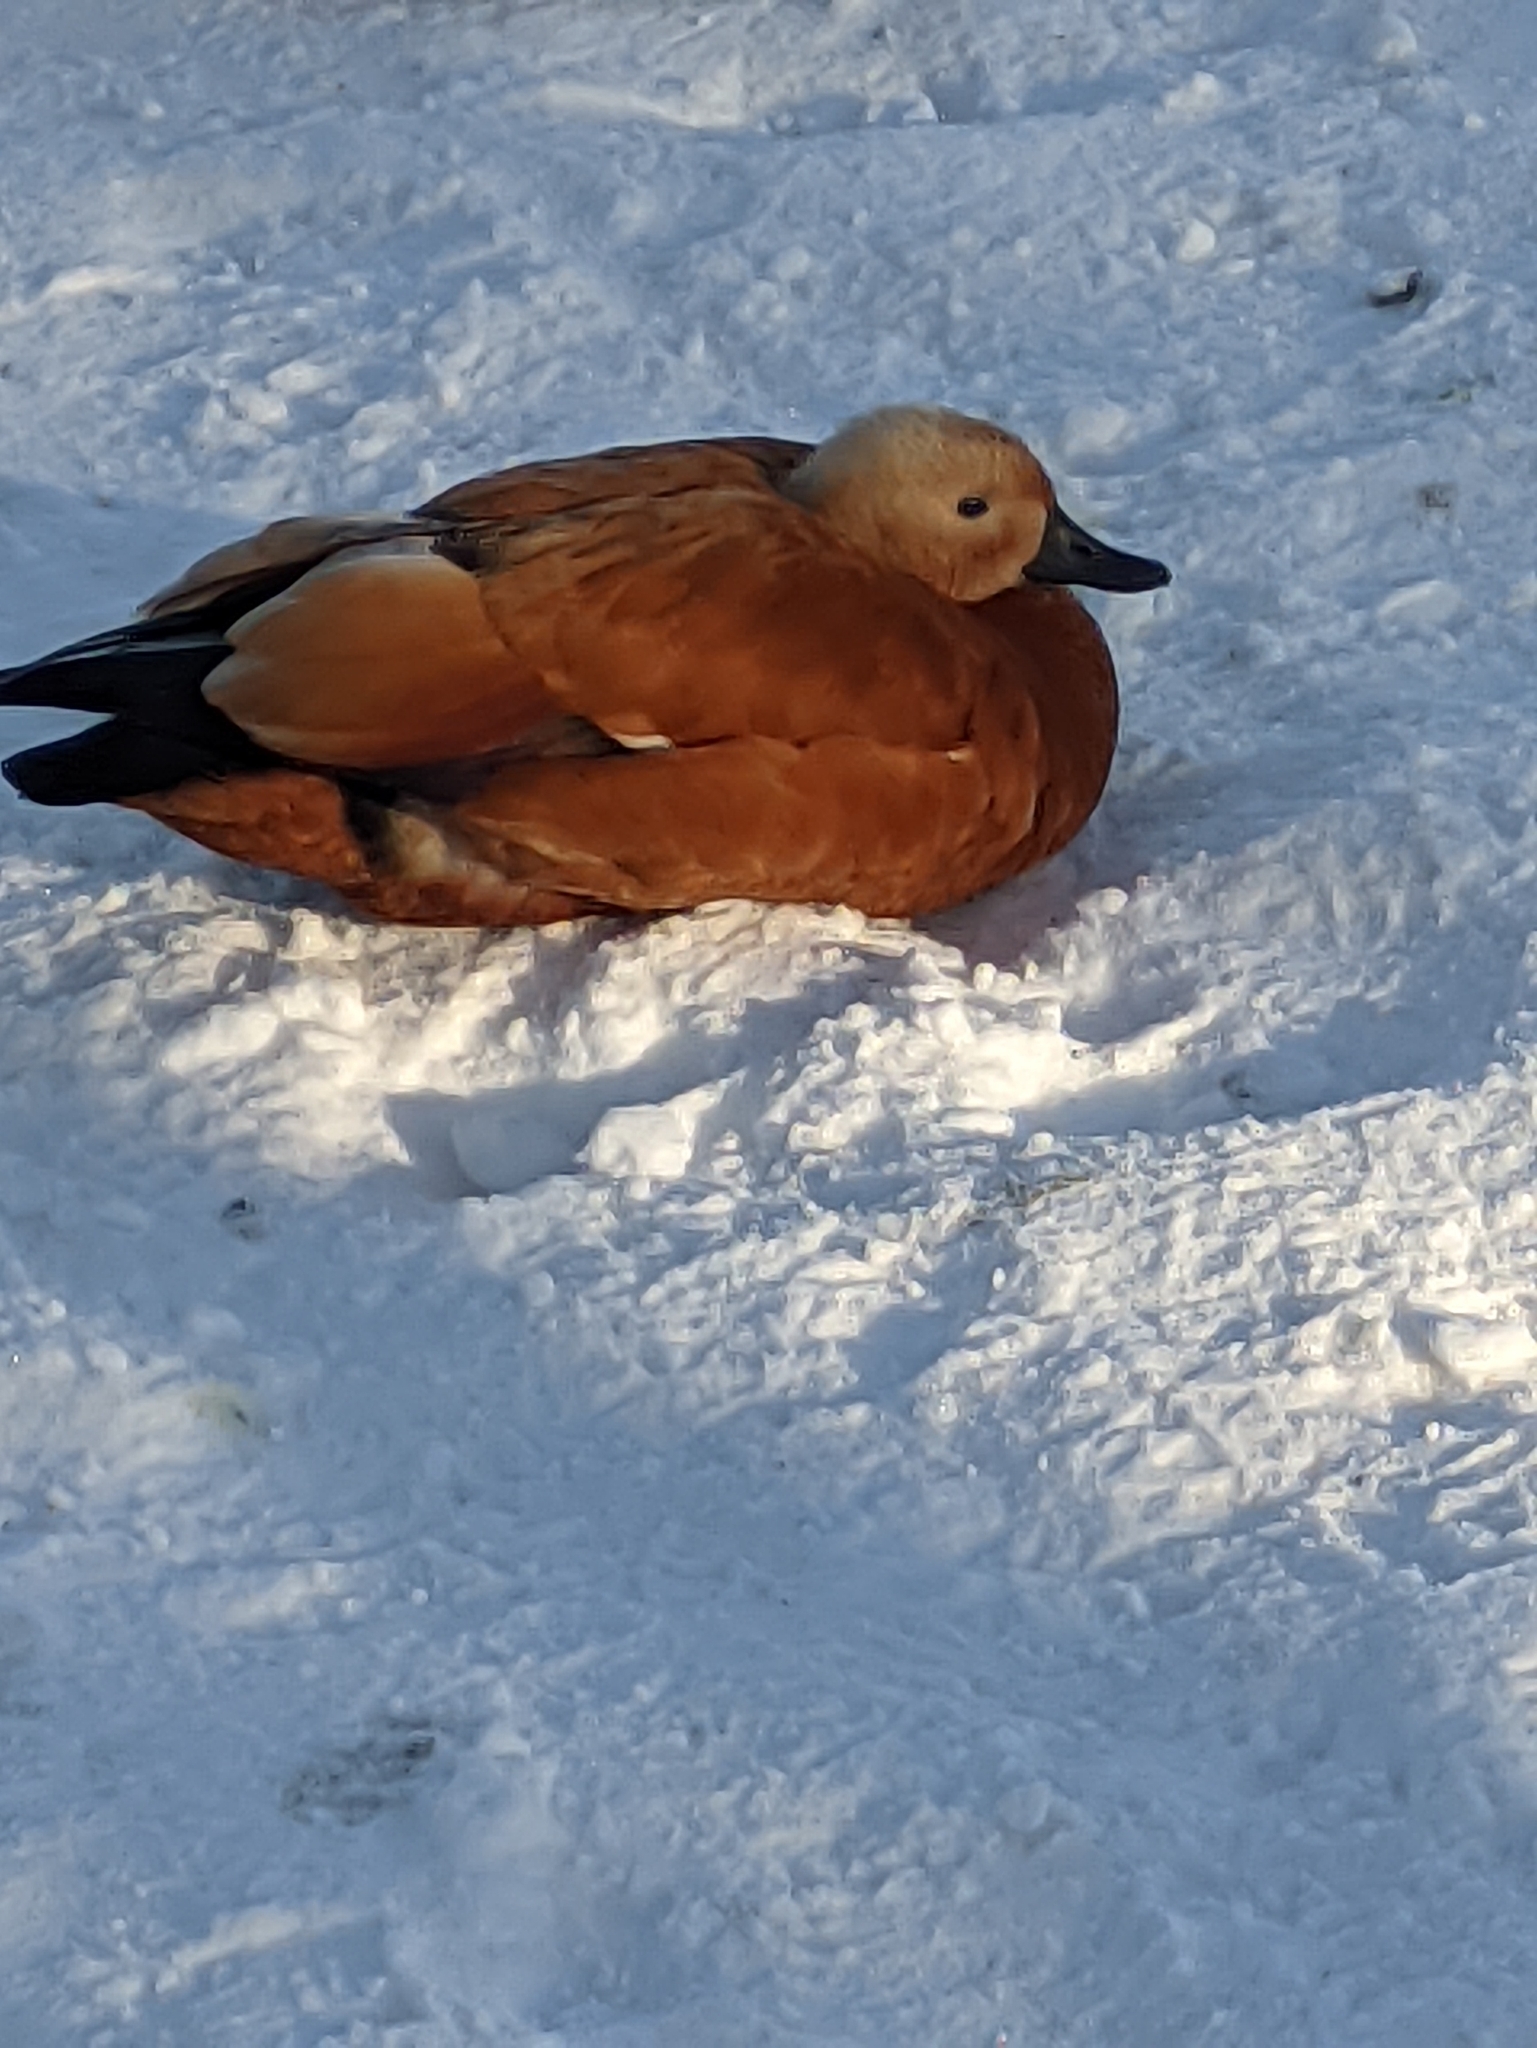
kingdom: Animalia
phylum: Chordata
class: Aves
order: Anseriformes
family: Anatidae
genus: Tadorna
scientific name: Tadorna ferruginea
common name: Ruddy shelduck
